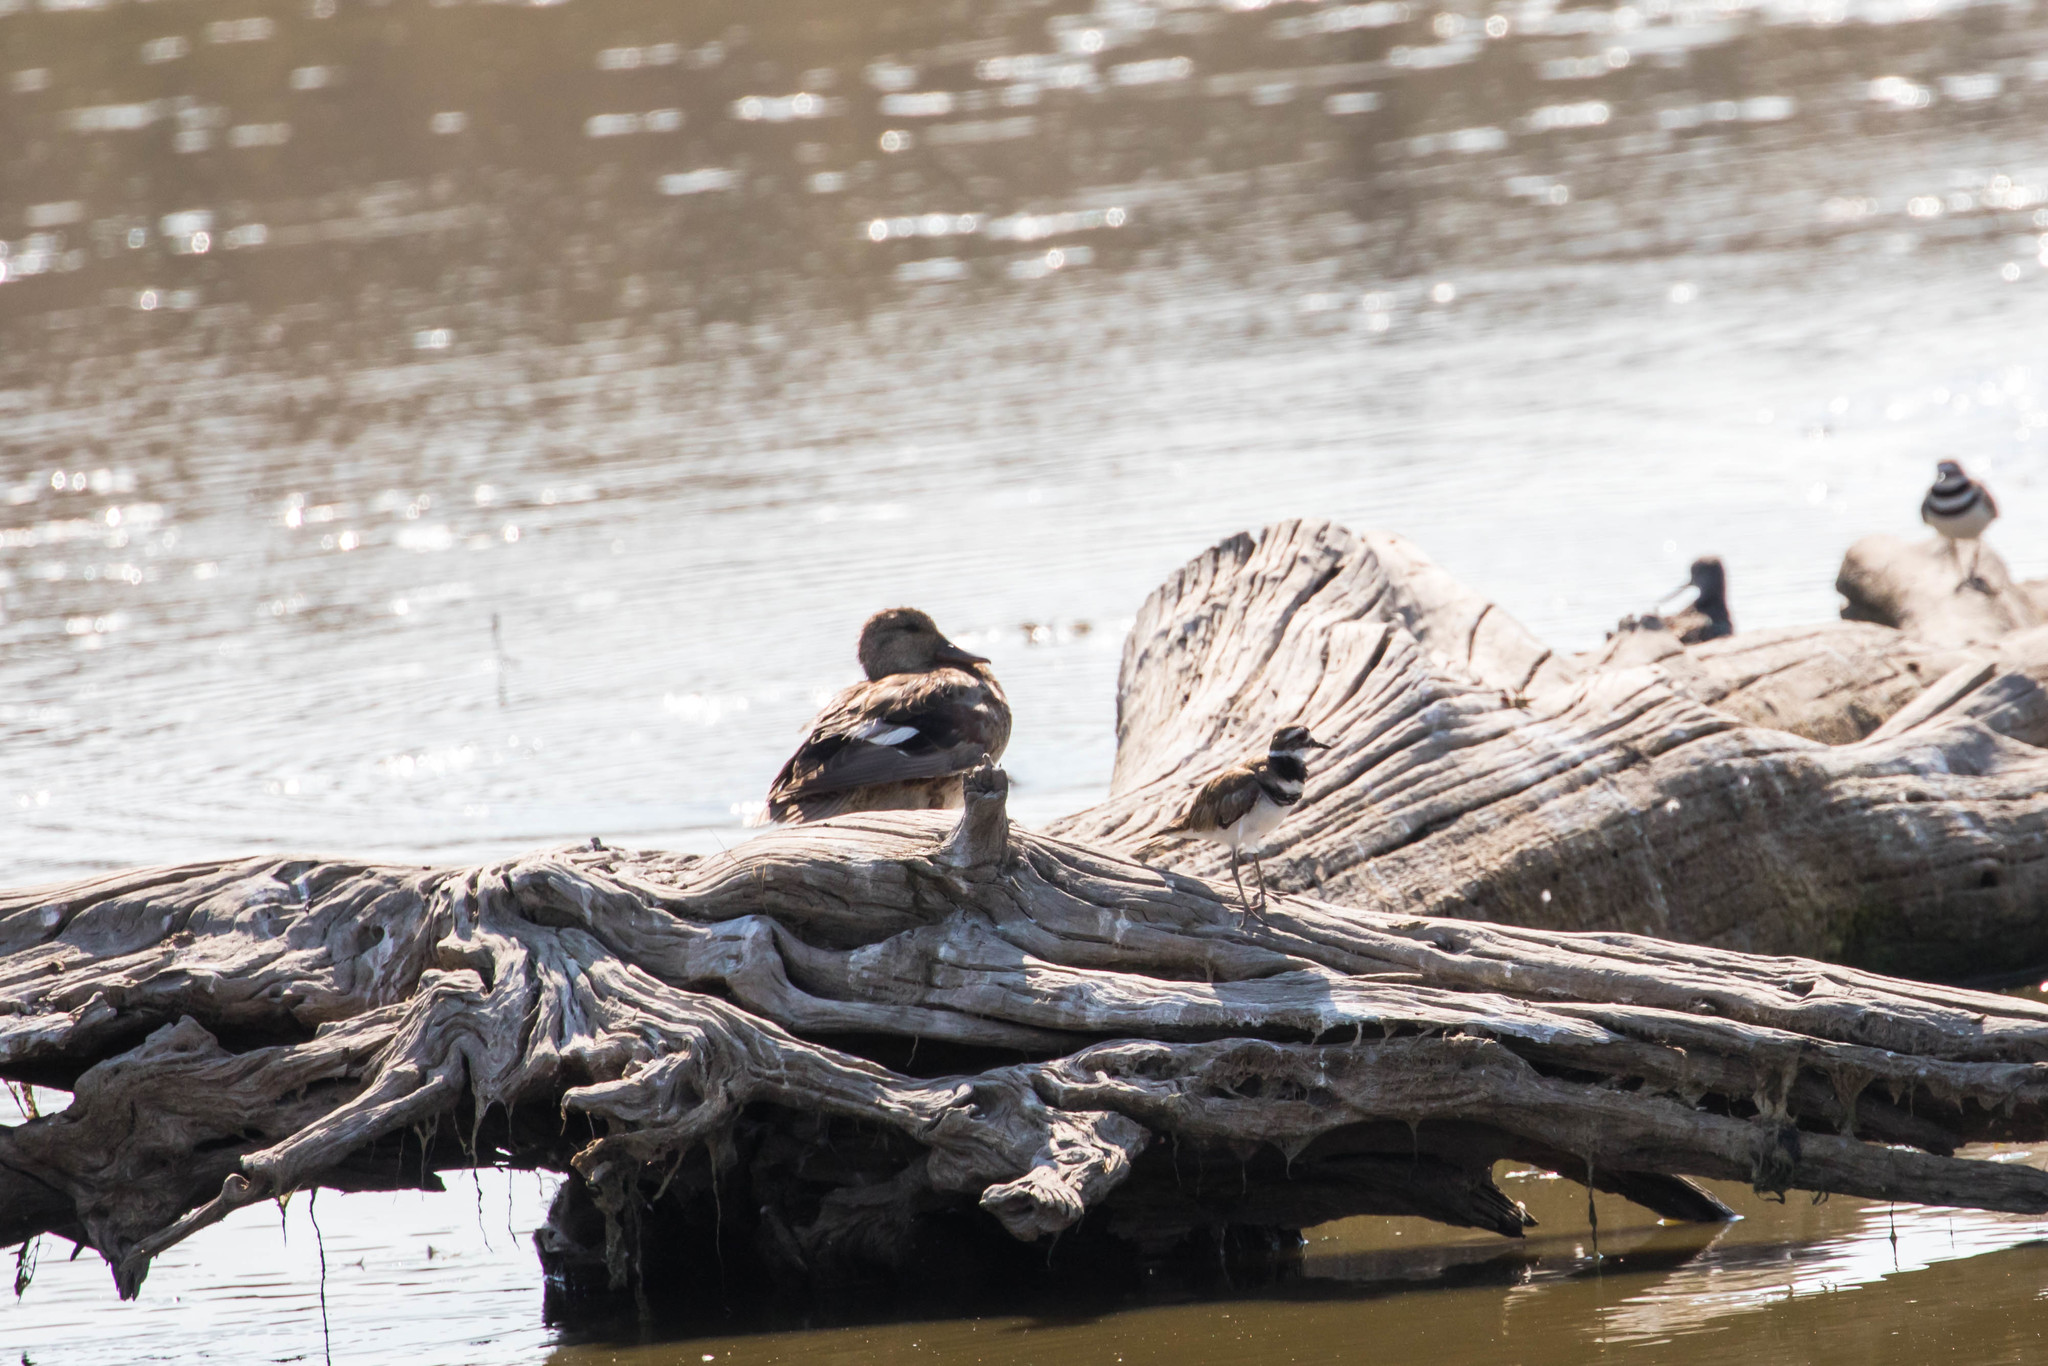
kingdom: Animalia
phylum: Chordata
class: Aves
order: Anseriformes
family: Anatidae
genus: Mareca
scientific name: Mareca strepera
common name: Gadwall
